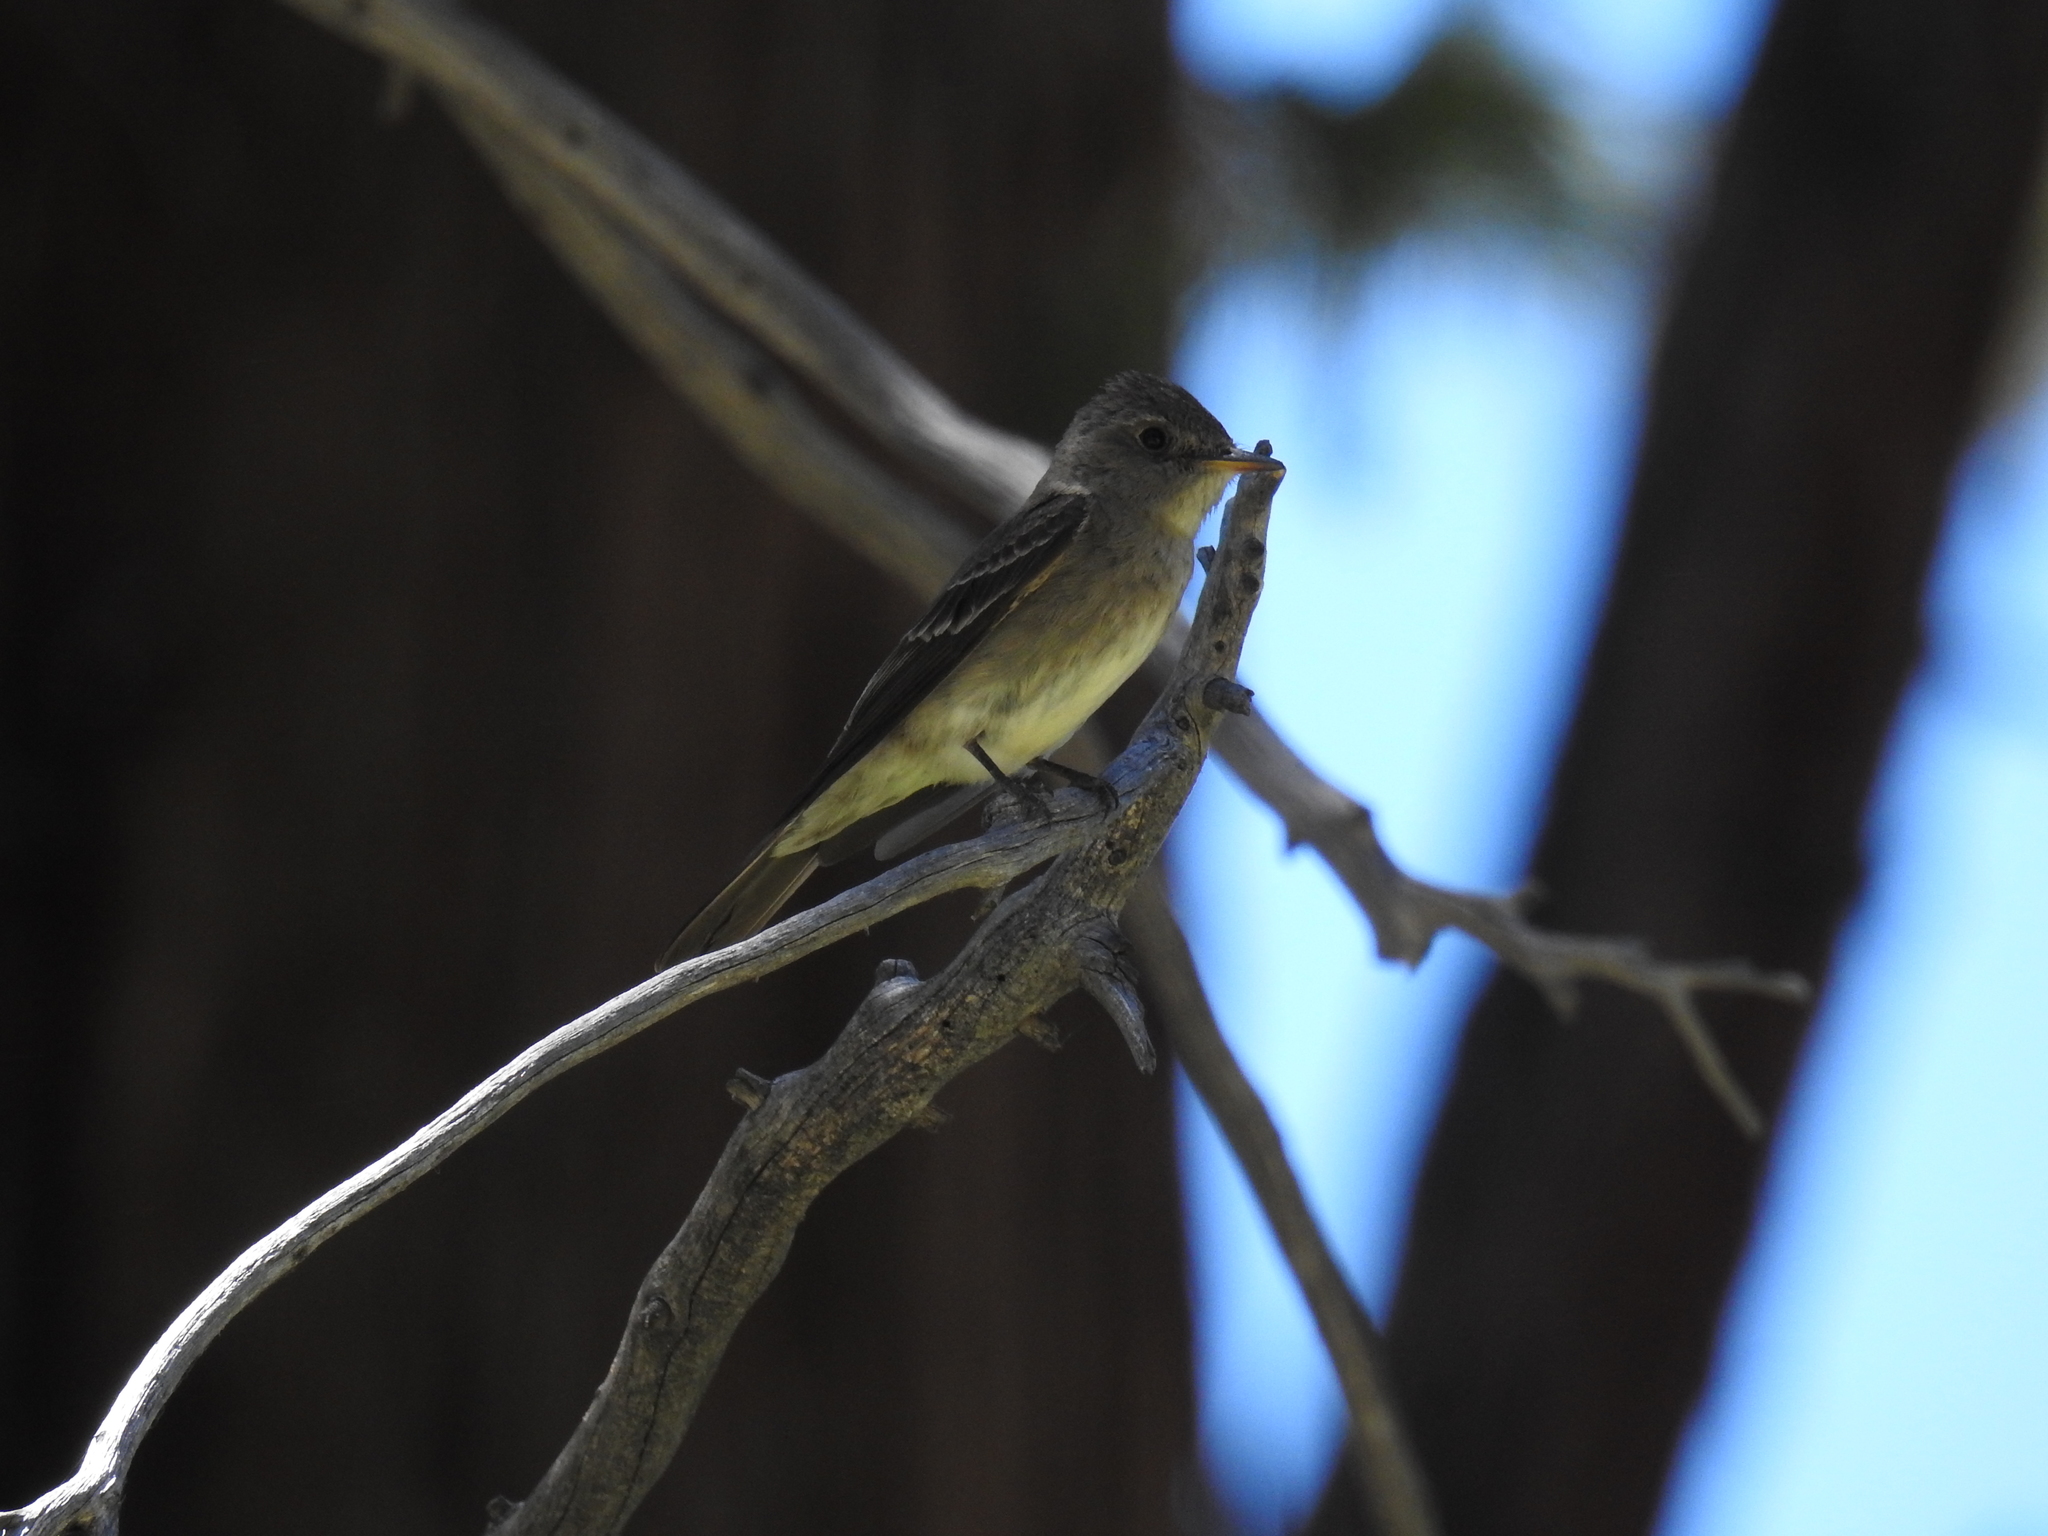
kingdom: Animalia
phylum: Chordata
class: Aves
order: Passeriformes
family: Tyrannidae
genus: Contopus
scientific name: Contopus sordidulus
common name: Western wood-pewee
